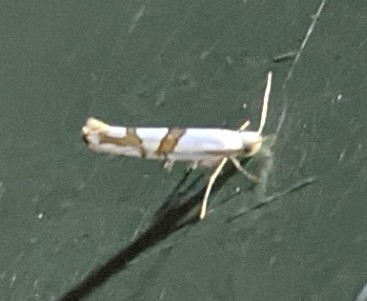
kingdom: Animalia
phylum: Arthropoda
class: Insecta
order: Lepidoptera
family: Argyresthiidae
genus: Argyresthia
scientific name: Argyresthia oreasella
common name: Cherry shoot borer moth
